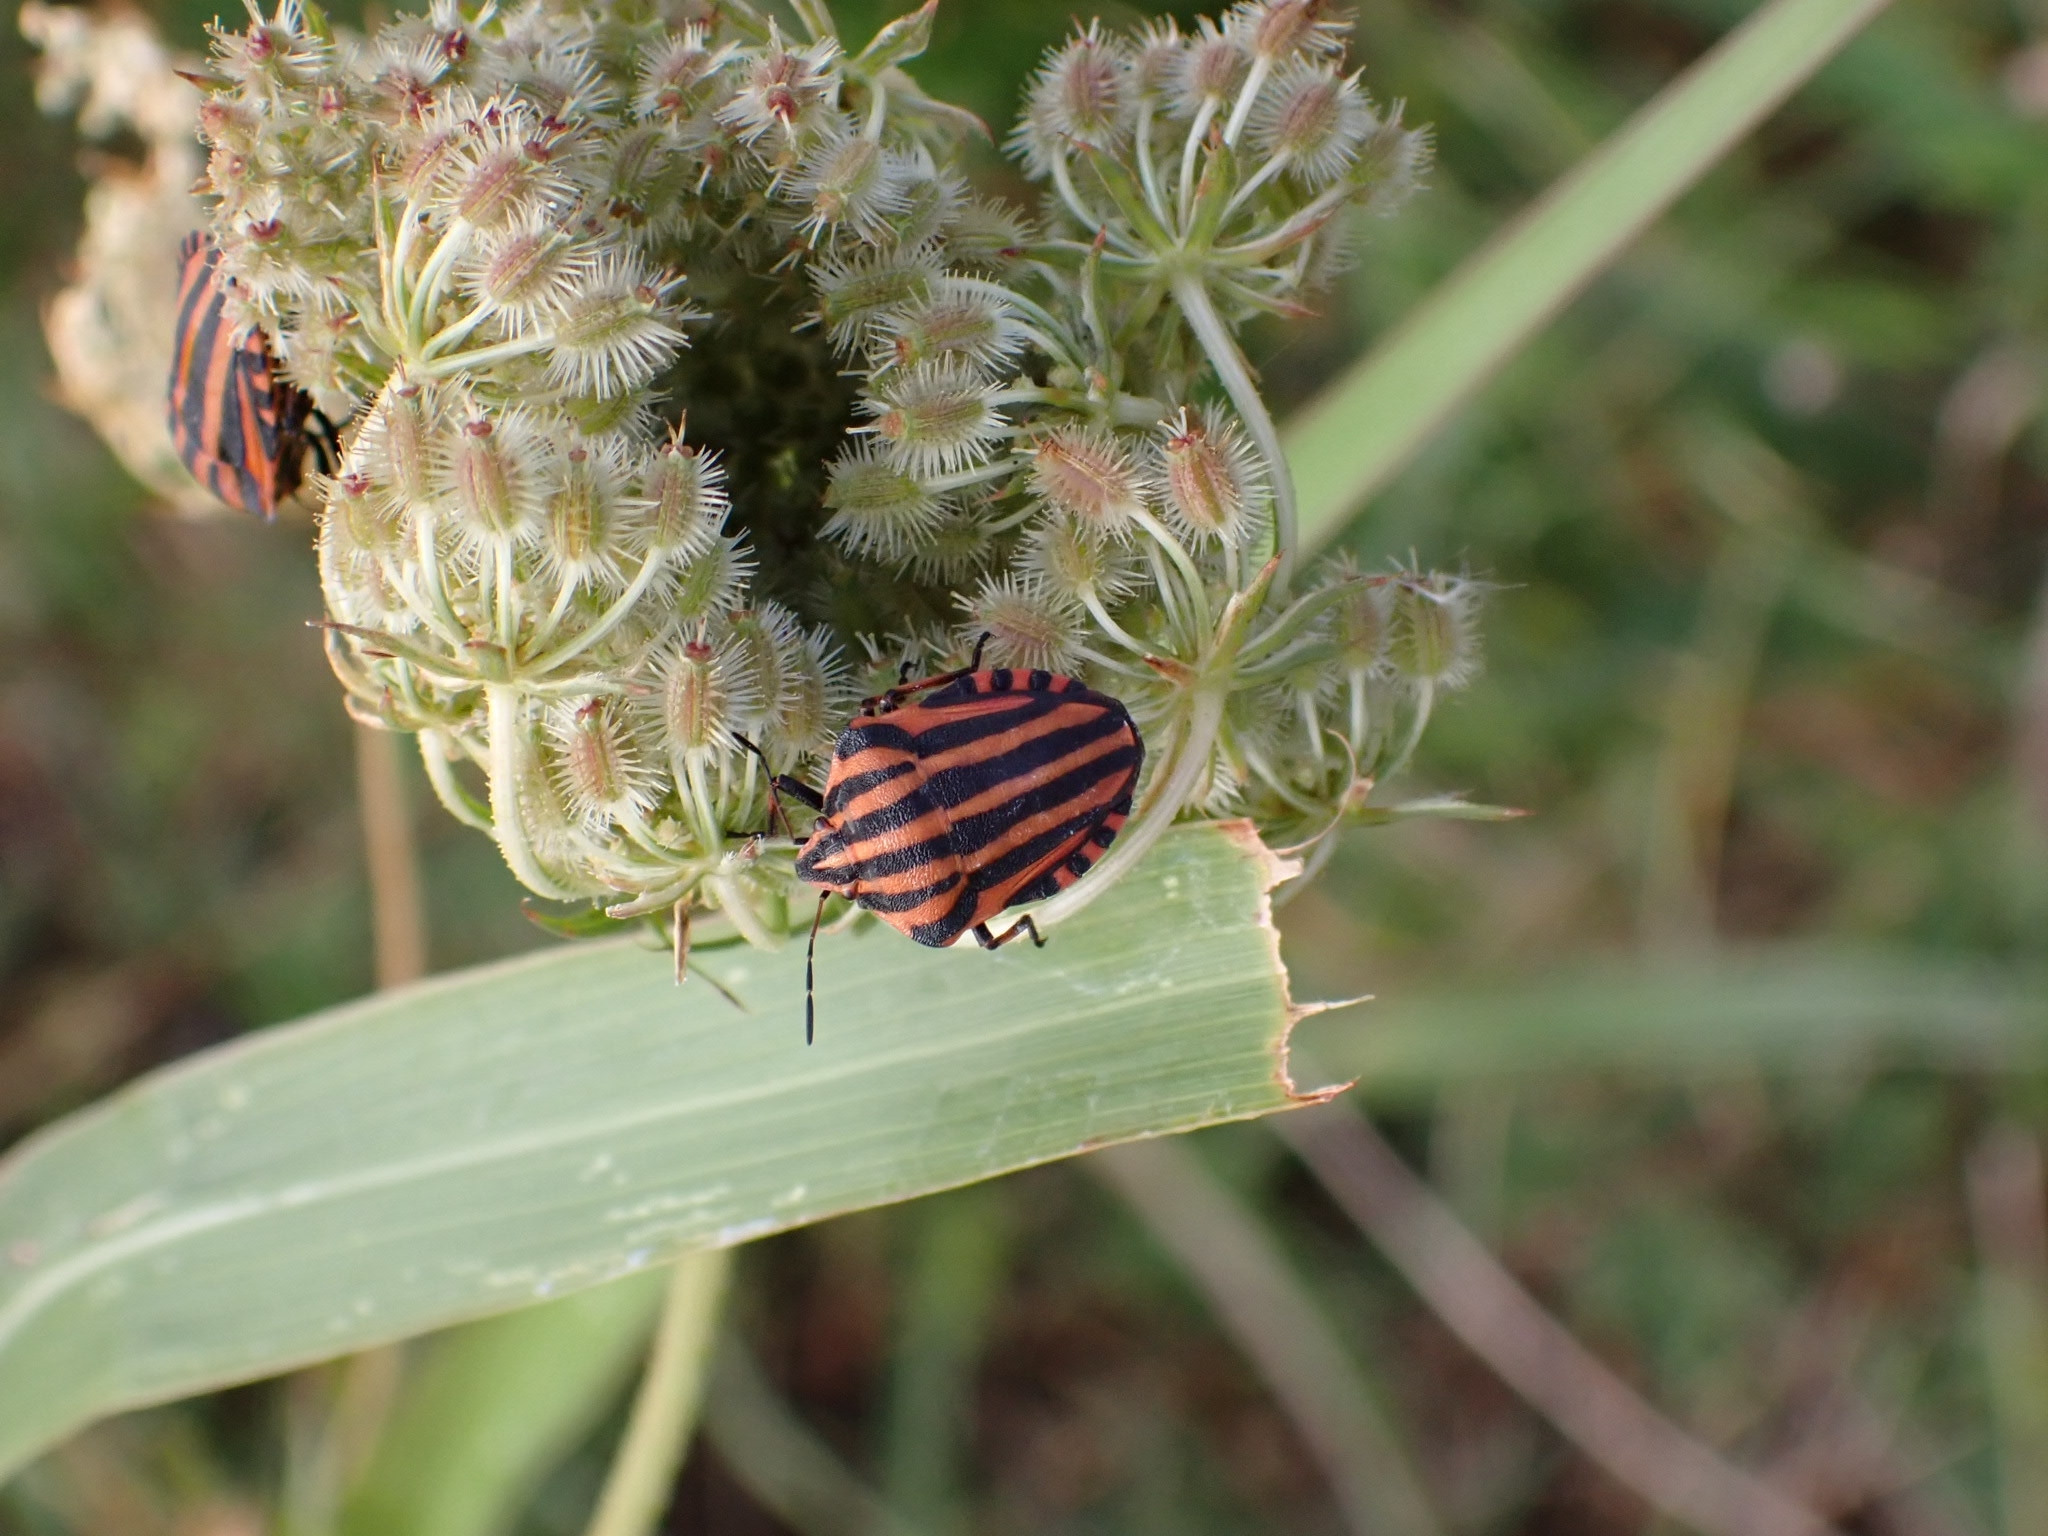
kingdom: Animalia
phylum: Arthropoda
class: Insecta
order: Hemiptera
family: Pentatomidae
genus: Graphosoma
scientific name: Graphosoma italicum
